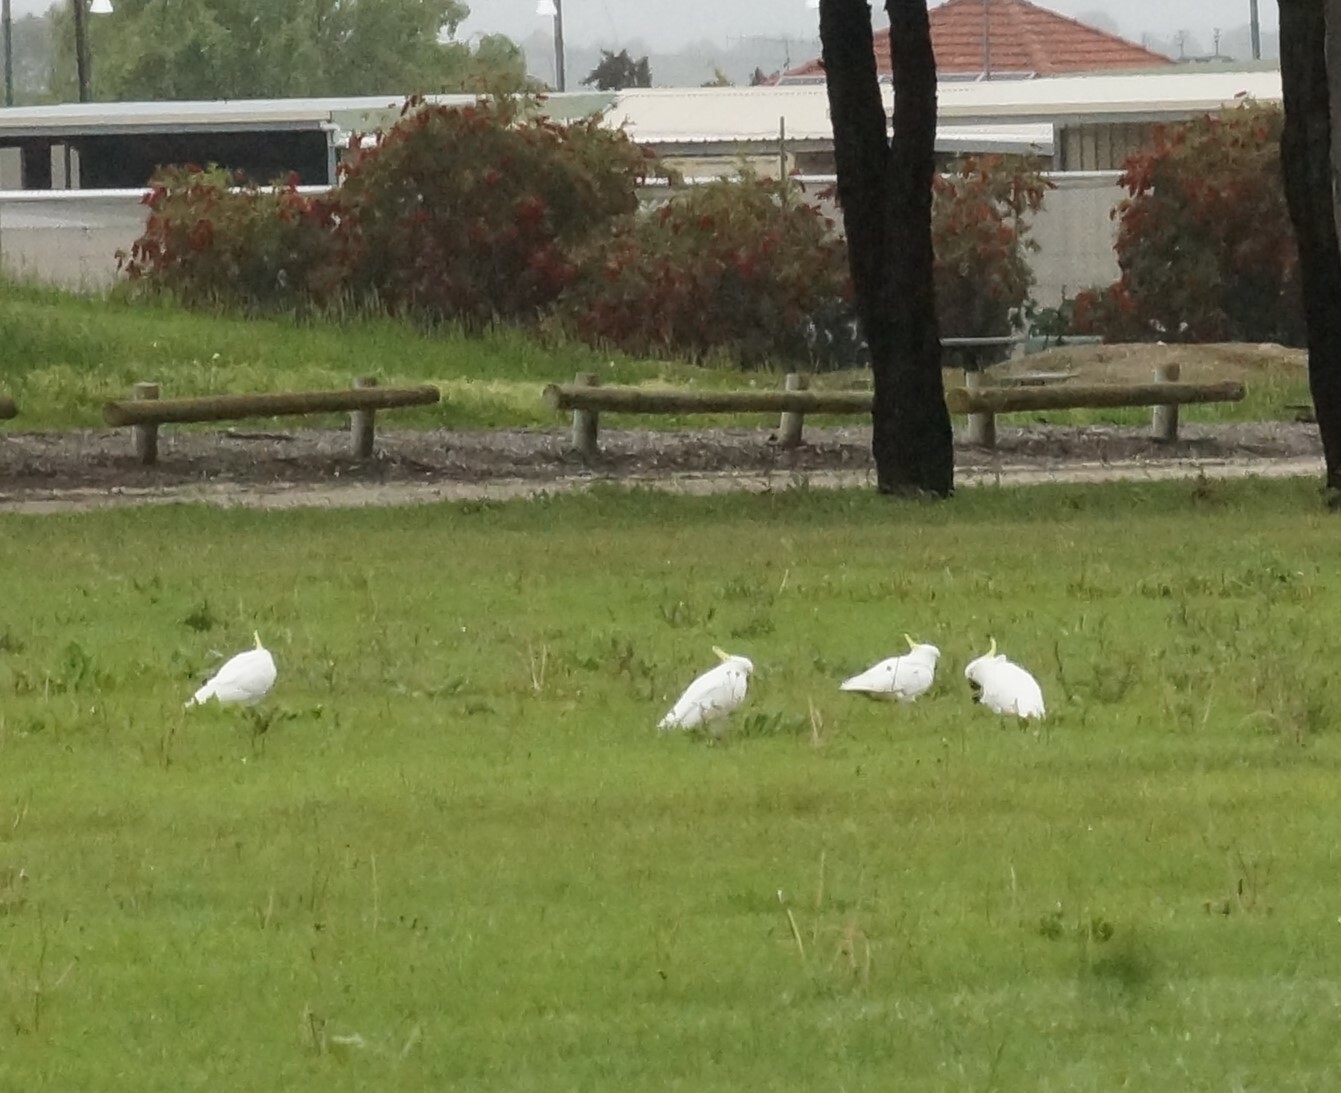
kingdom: Animalia
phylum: Chordata
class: Aves
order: Psittaciformes
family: Psittacidae
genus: Cacatua
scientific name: Cacatua galerita
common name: Sulphur-crested cockatoo
